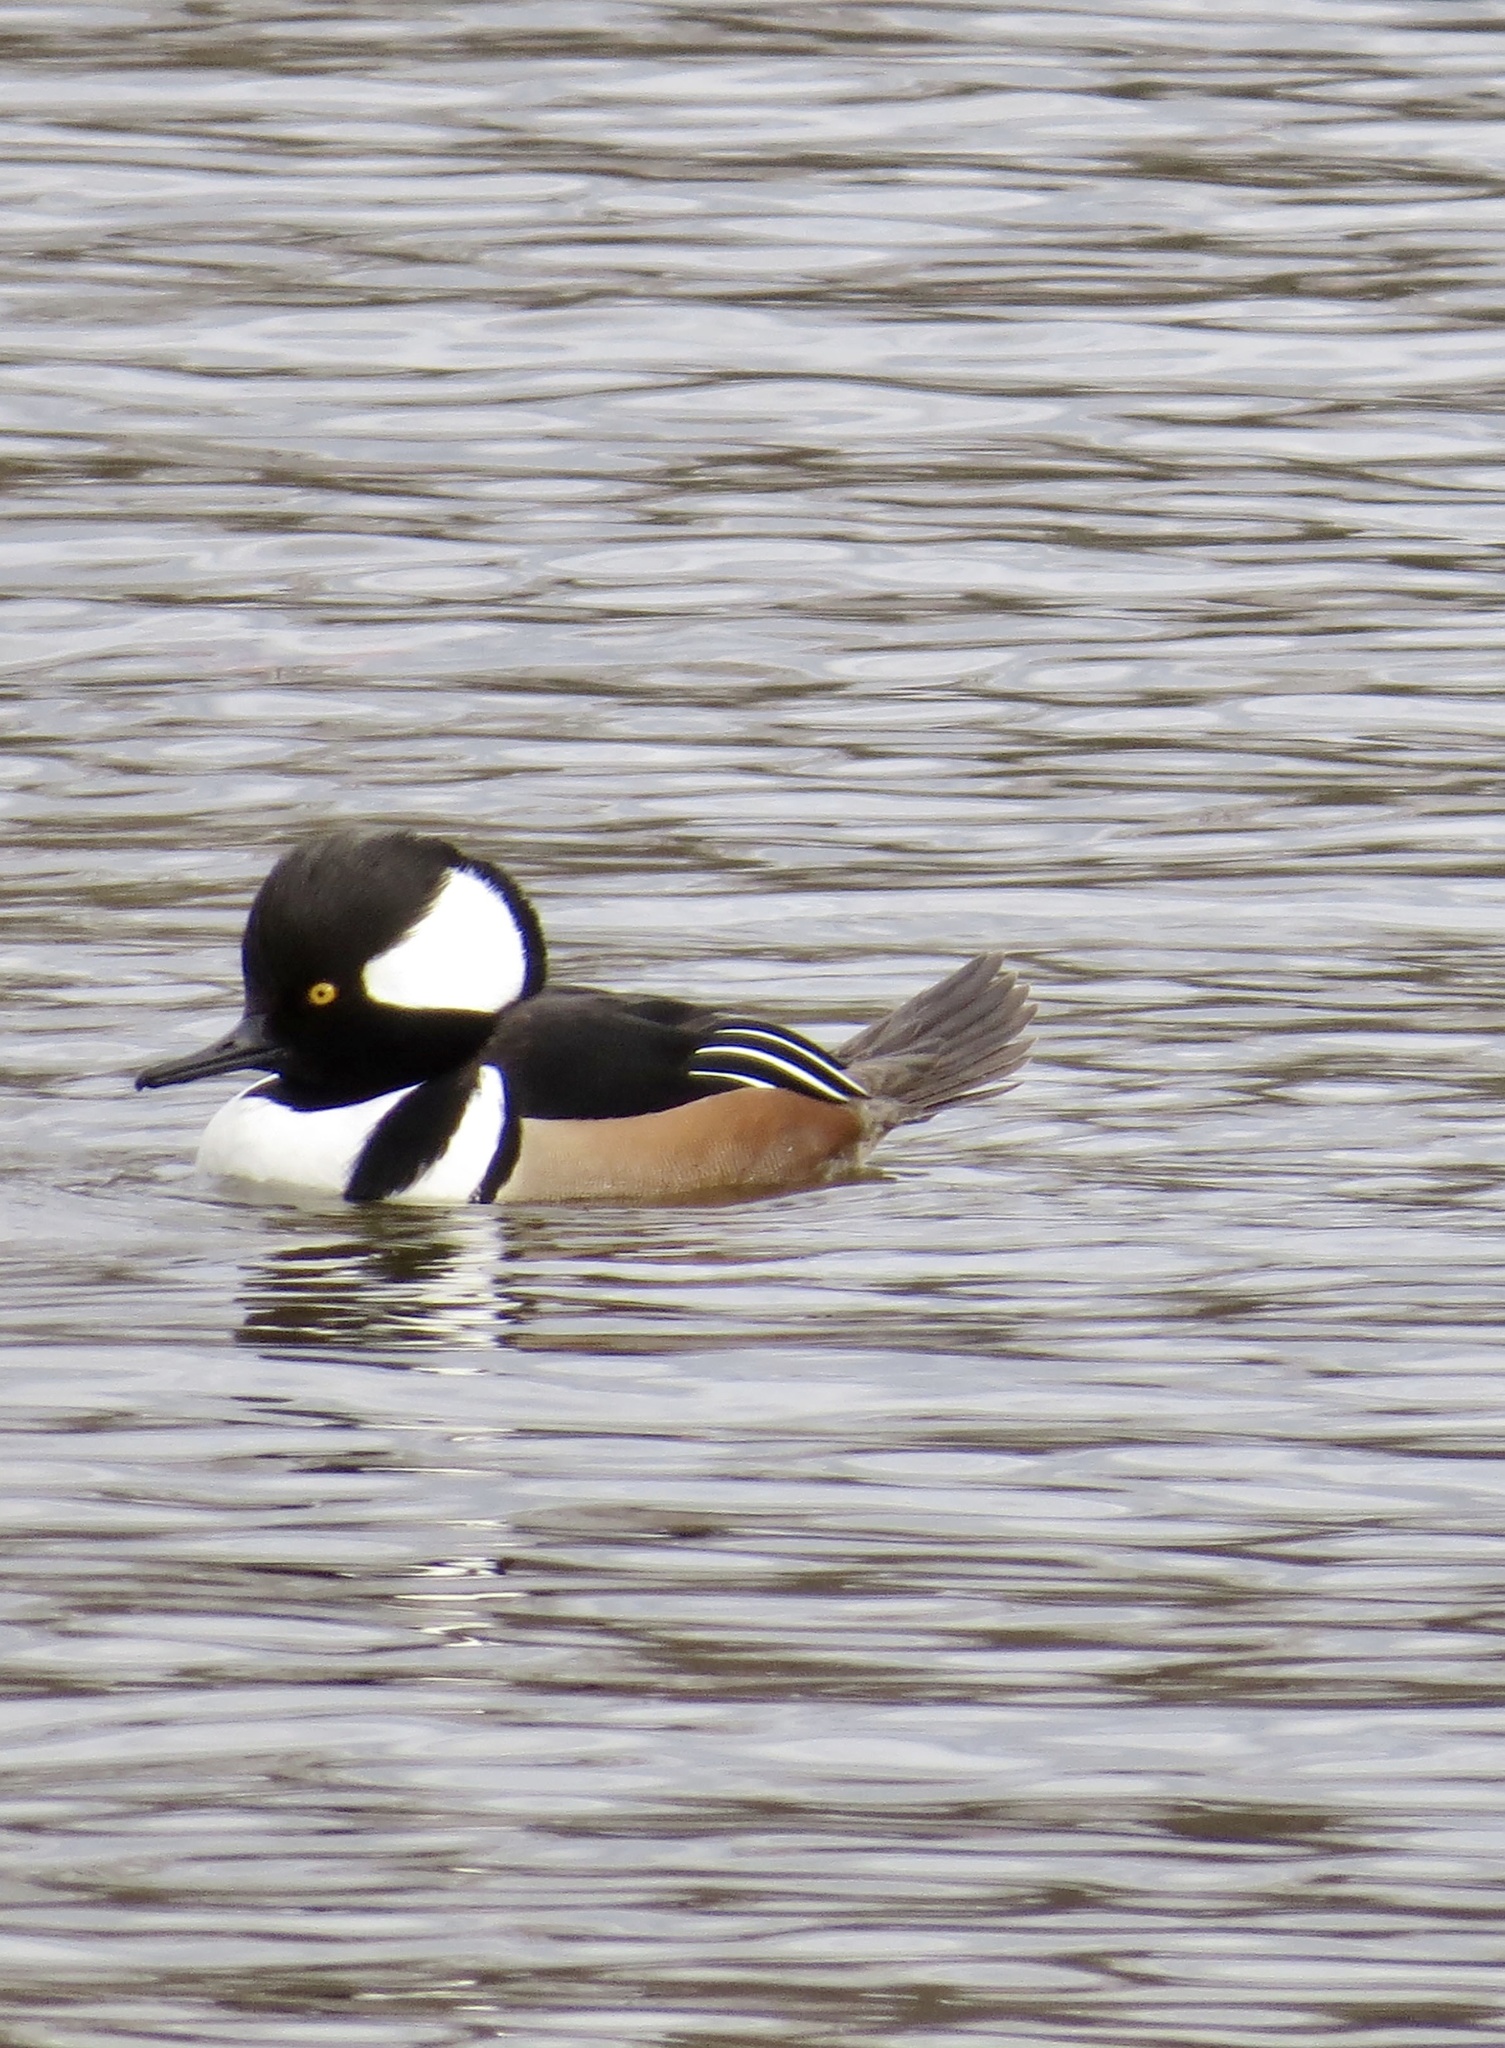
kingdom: Animalia
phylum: Chordata
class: Aves
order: Anseriformes
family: Anatidae
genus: Lophodytes
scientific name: Lophodytes cucullatus
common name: Hooded merganser
